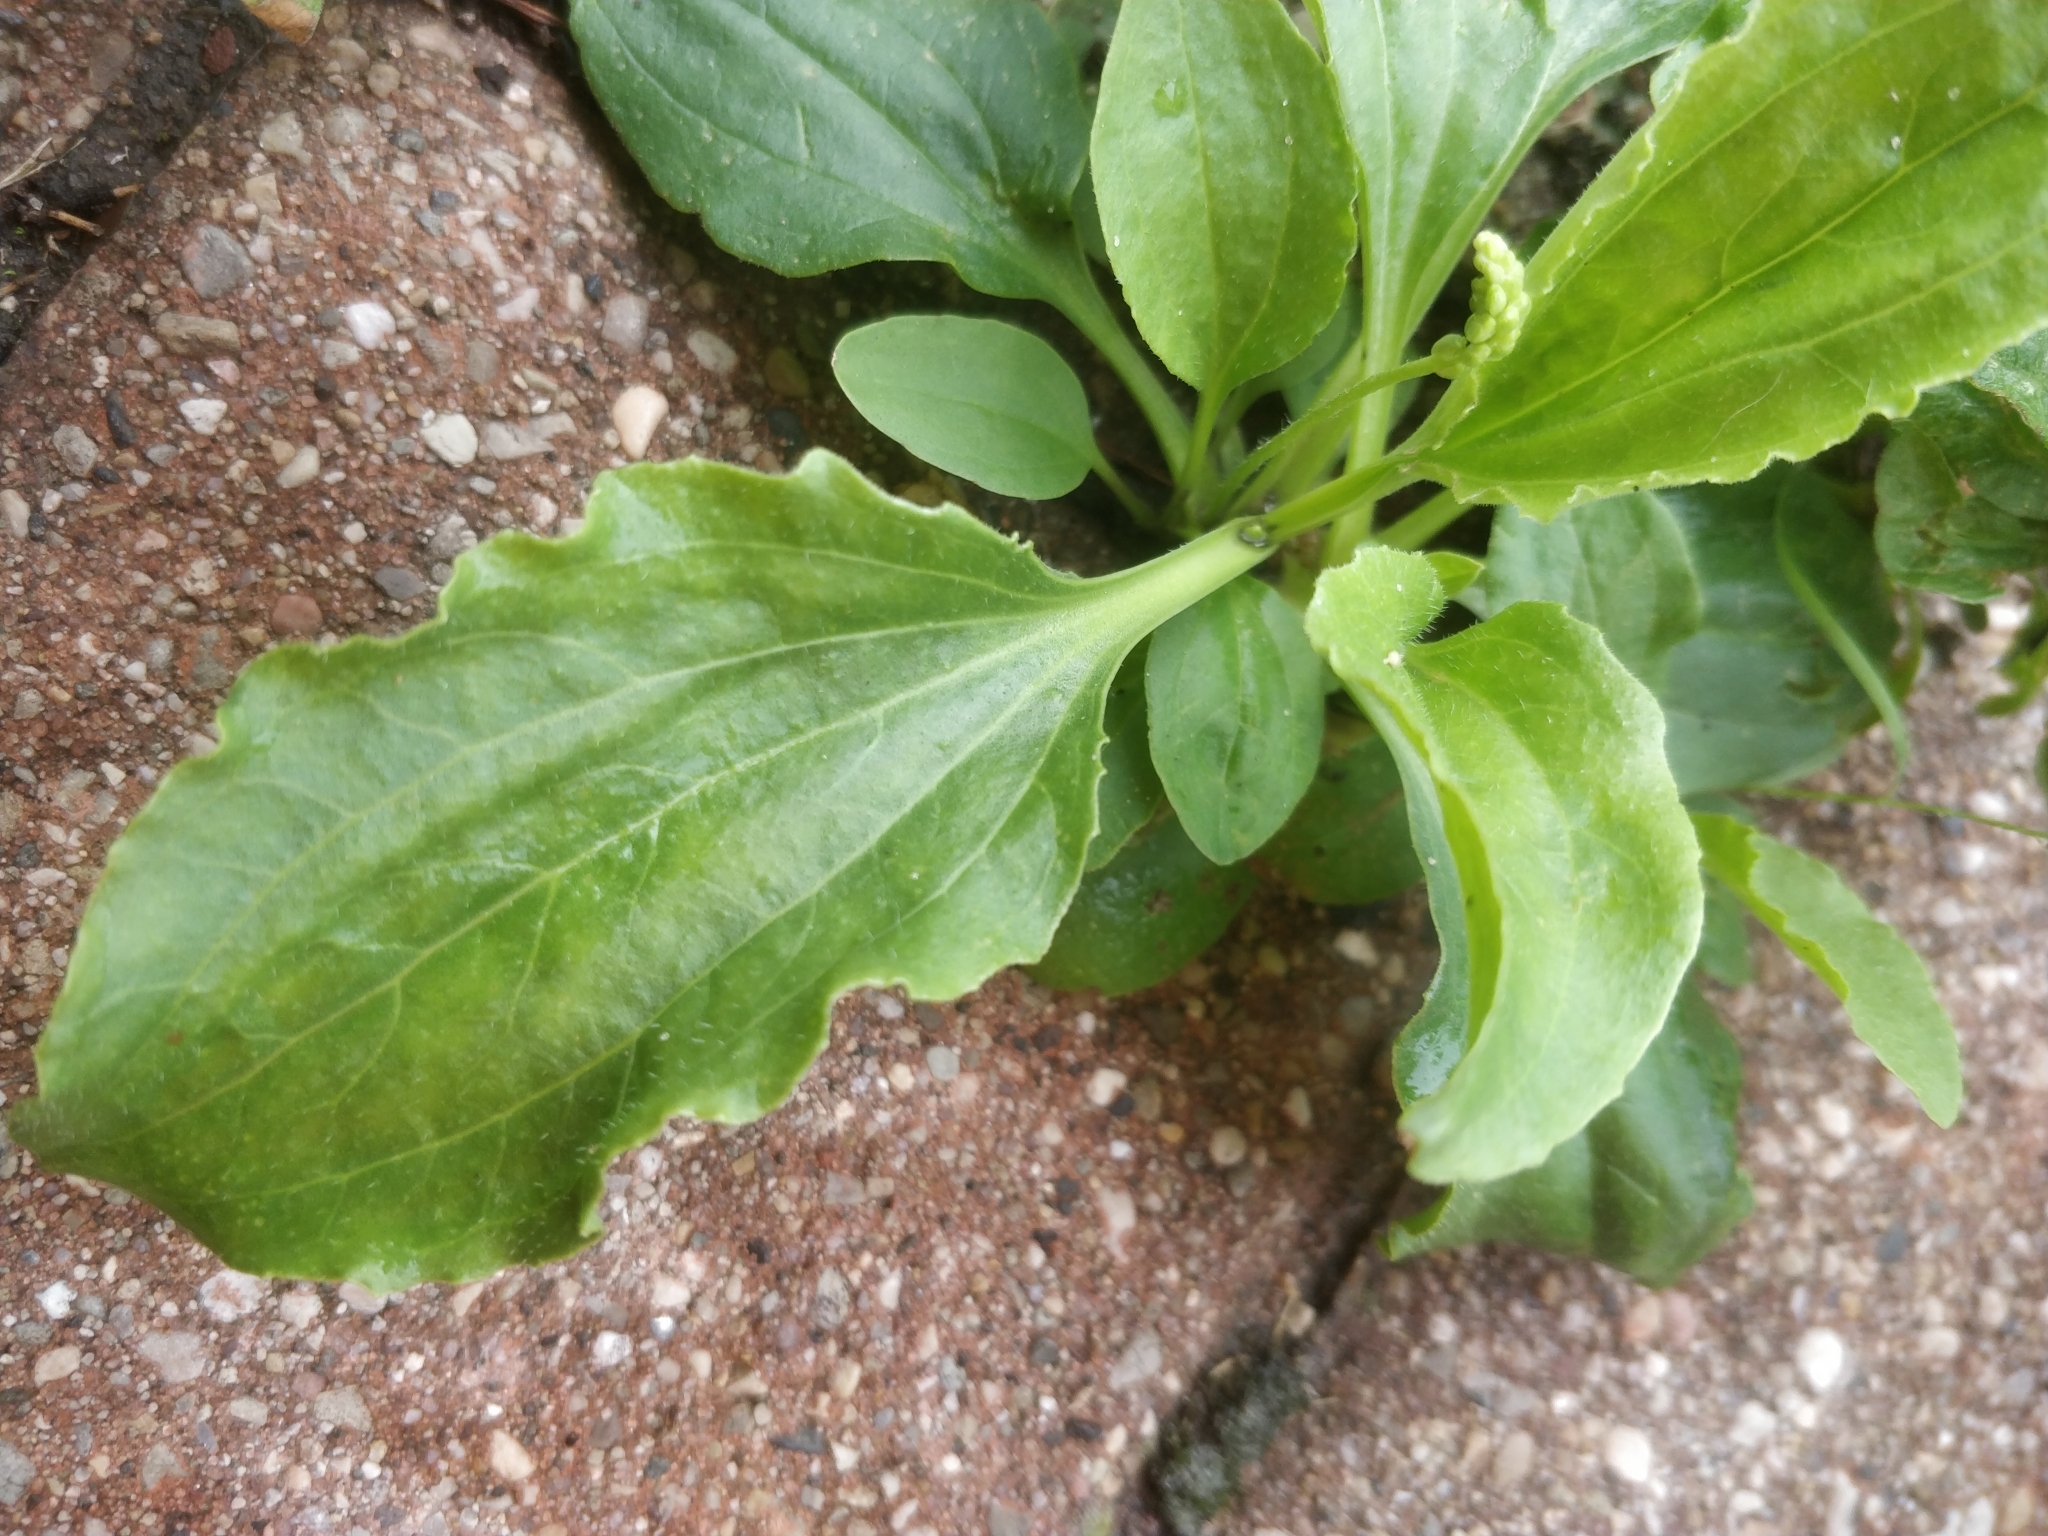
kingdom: Plantae
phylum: Tracheophyta
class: Magnoliopsida
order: Lamiales
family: Plantaginaceae
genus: Plantago
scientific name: Plantago major
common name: Common plantain
